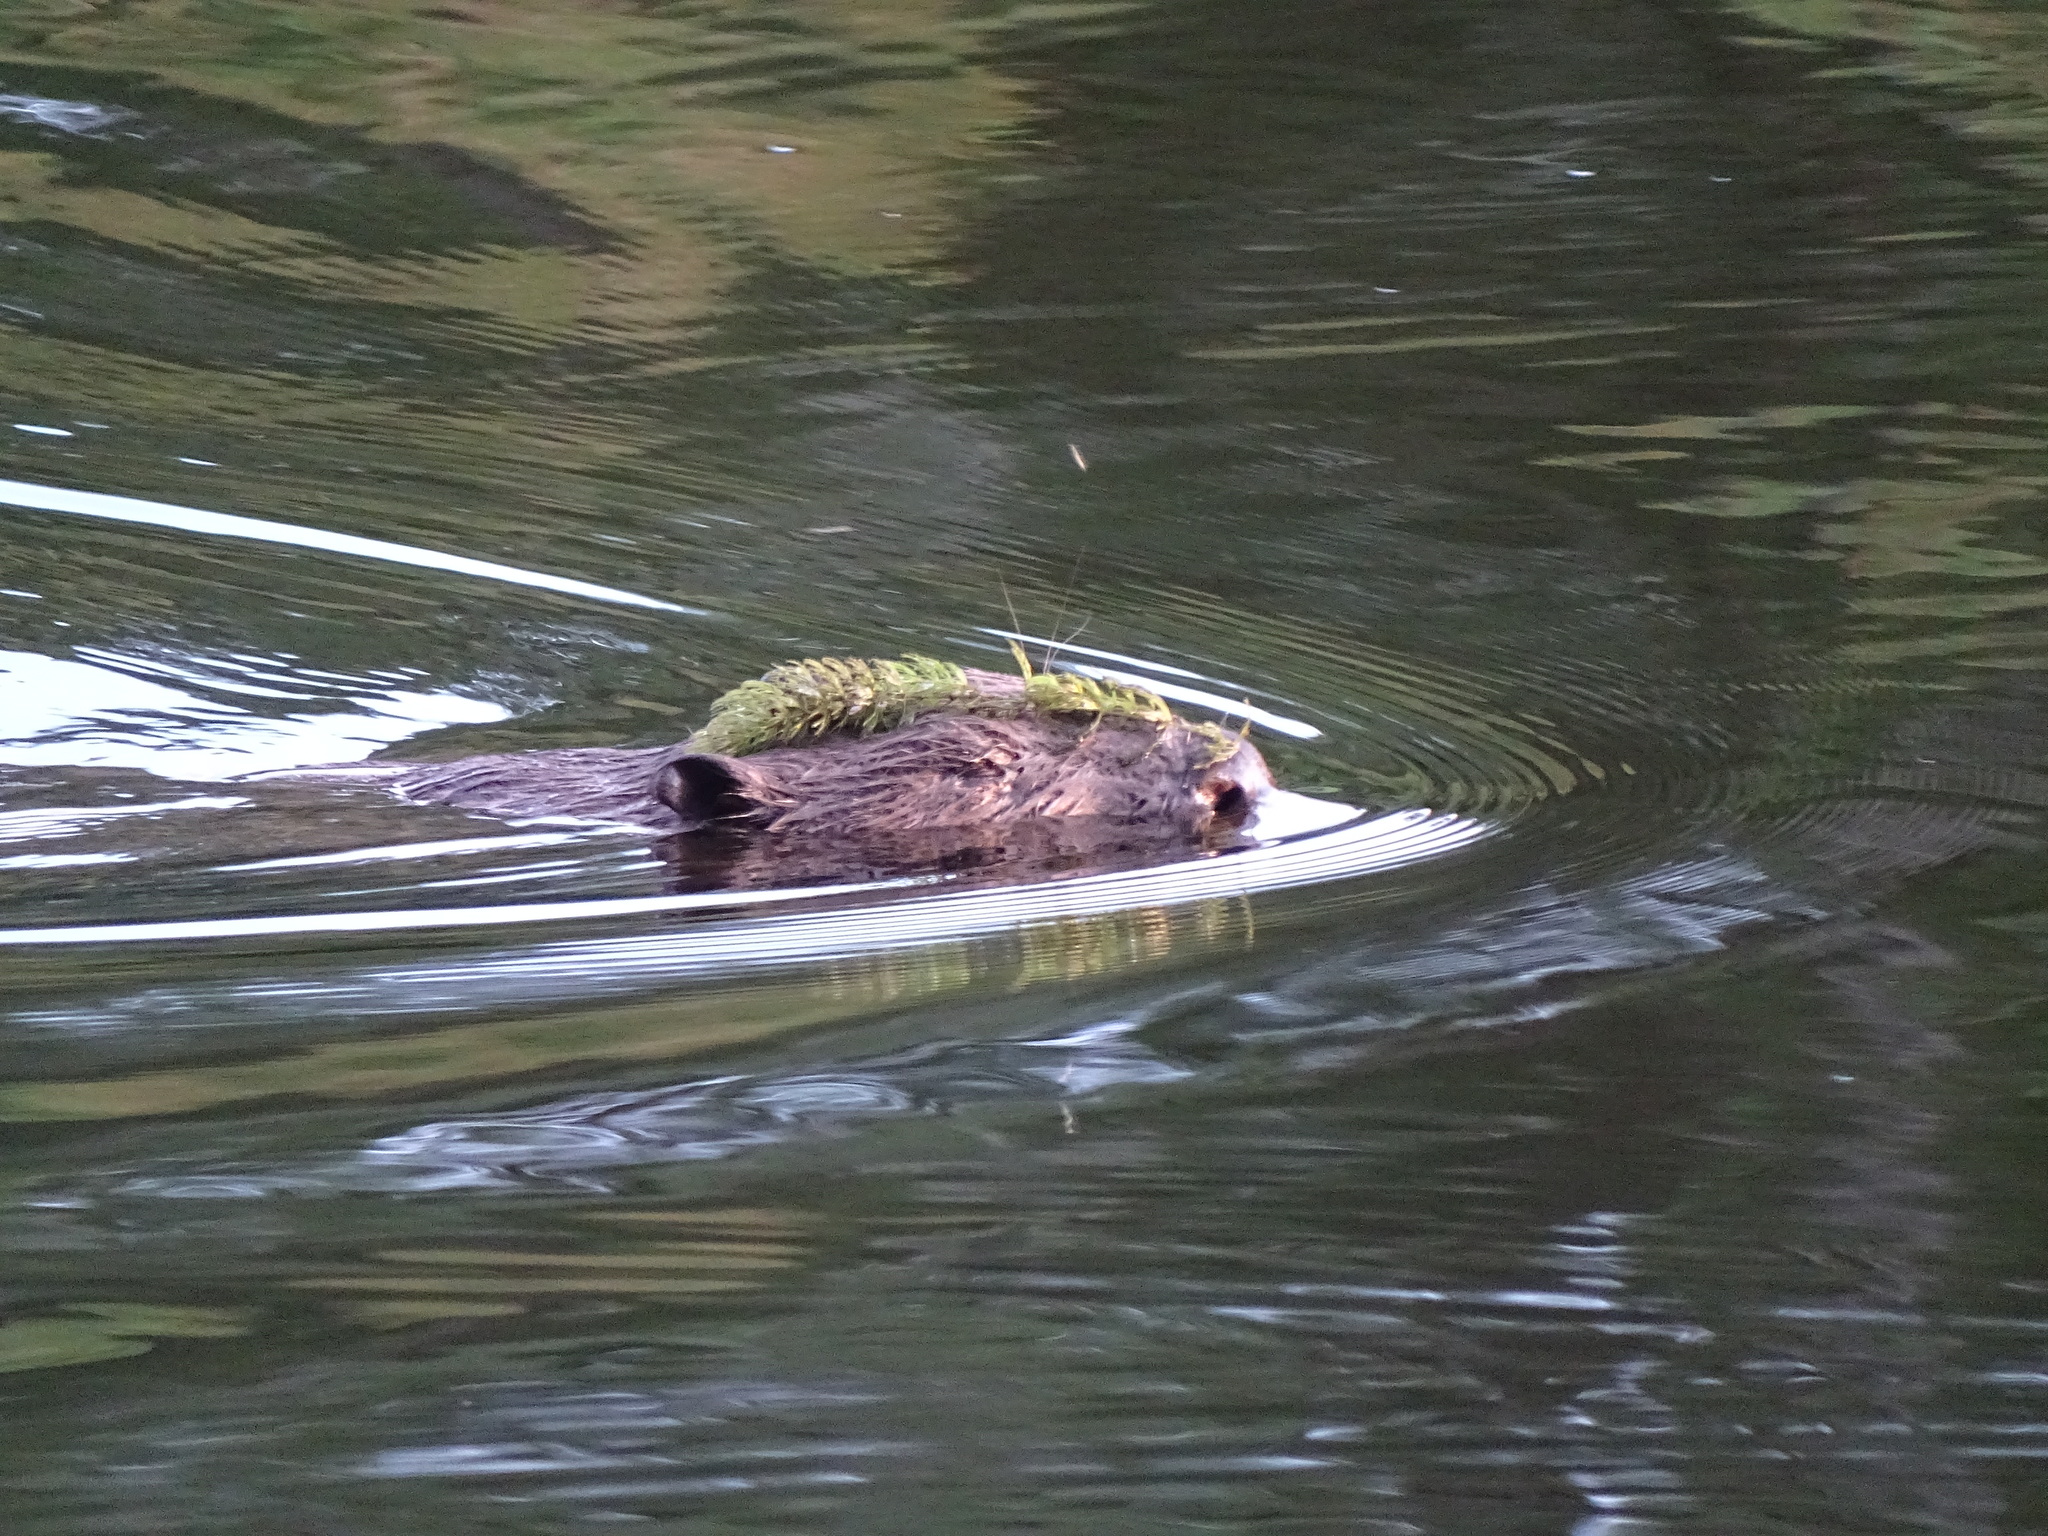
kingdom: Animalia
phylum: Chordata
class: Mammalia
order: Rodentia
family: Castoridae
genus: Castor
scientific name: Castor fiber
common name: Eurasian beaver
